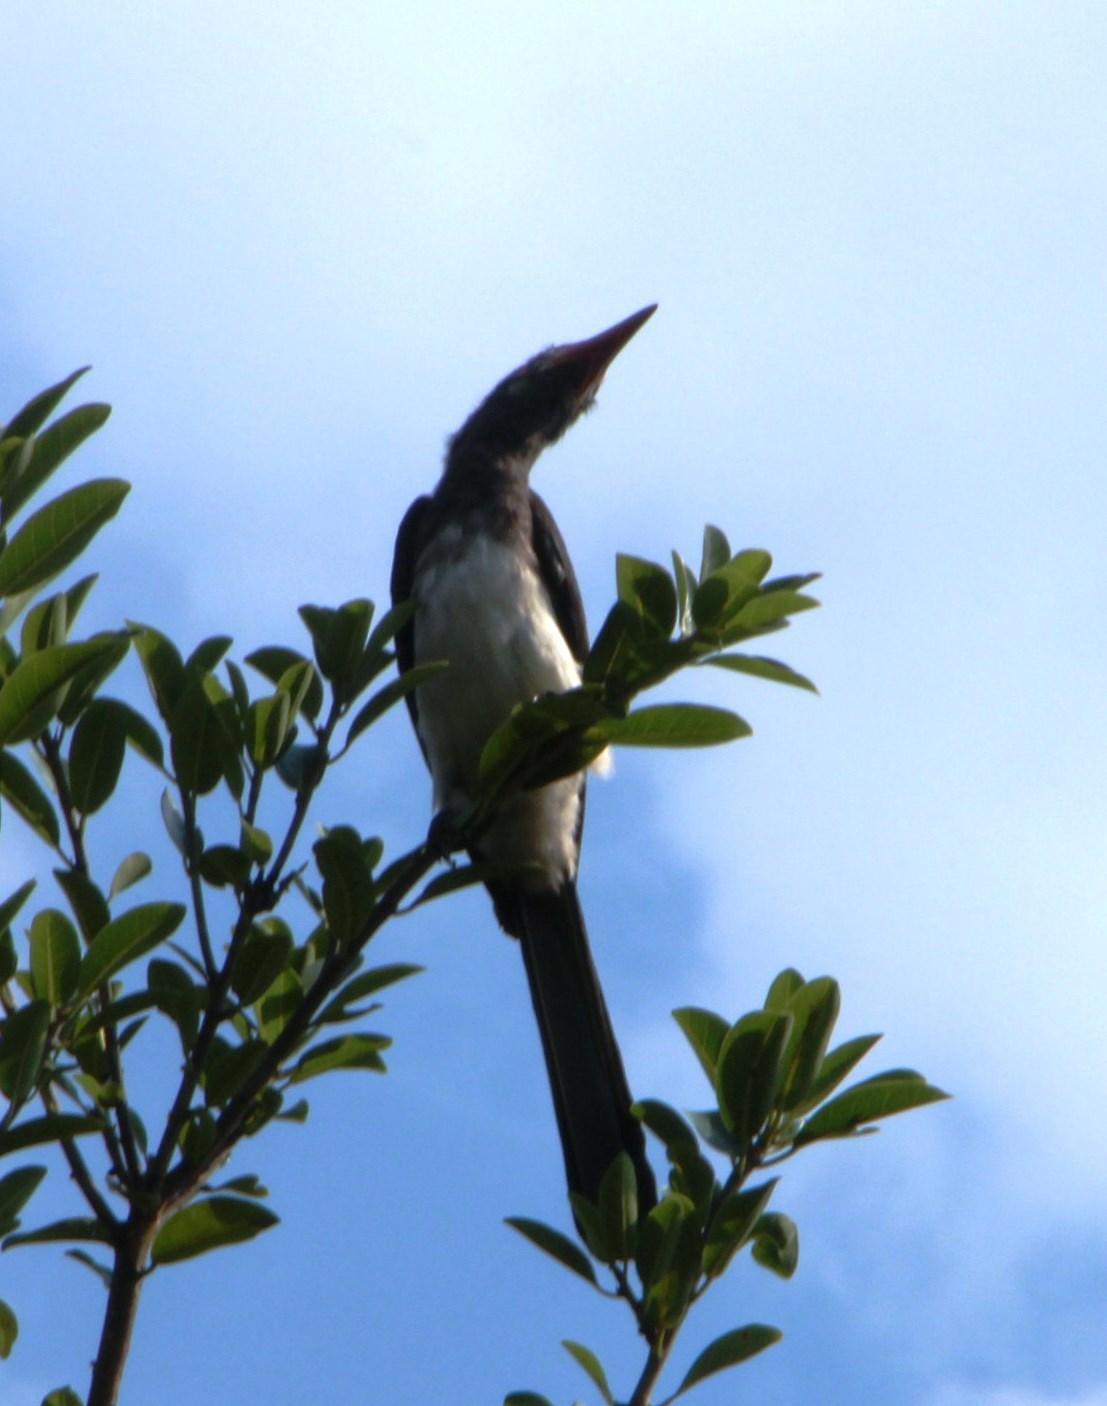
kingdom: Animalia
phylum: Chordata
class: Aves
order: Bucerotiformes
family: Bucerotidae
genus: Lophoceros
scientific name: Lophoceros alboterminatus
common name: Crowned hornbill
